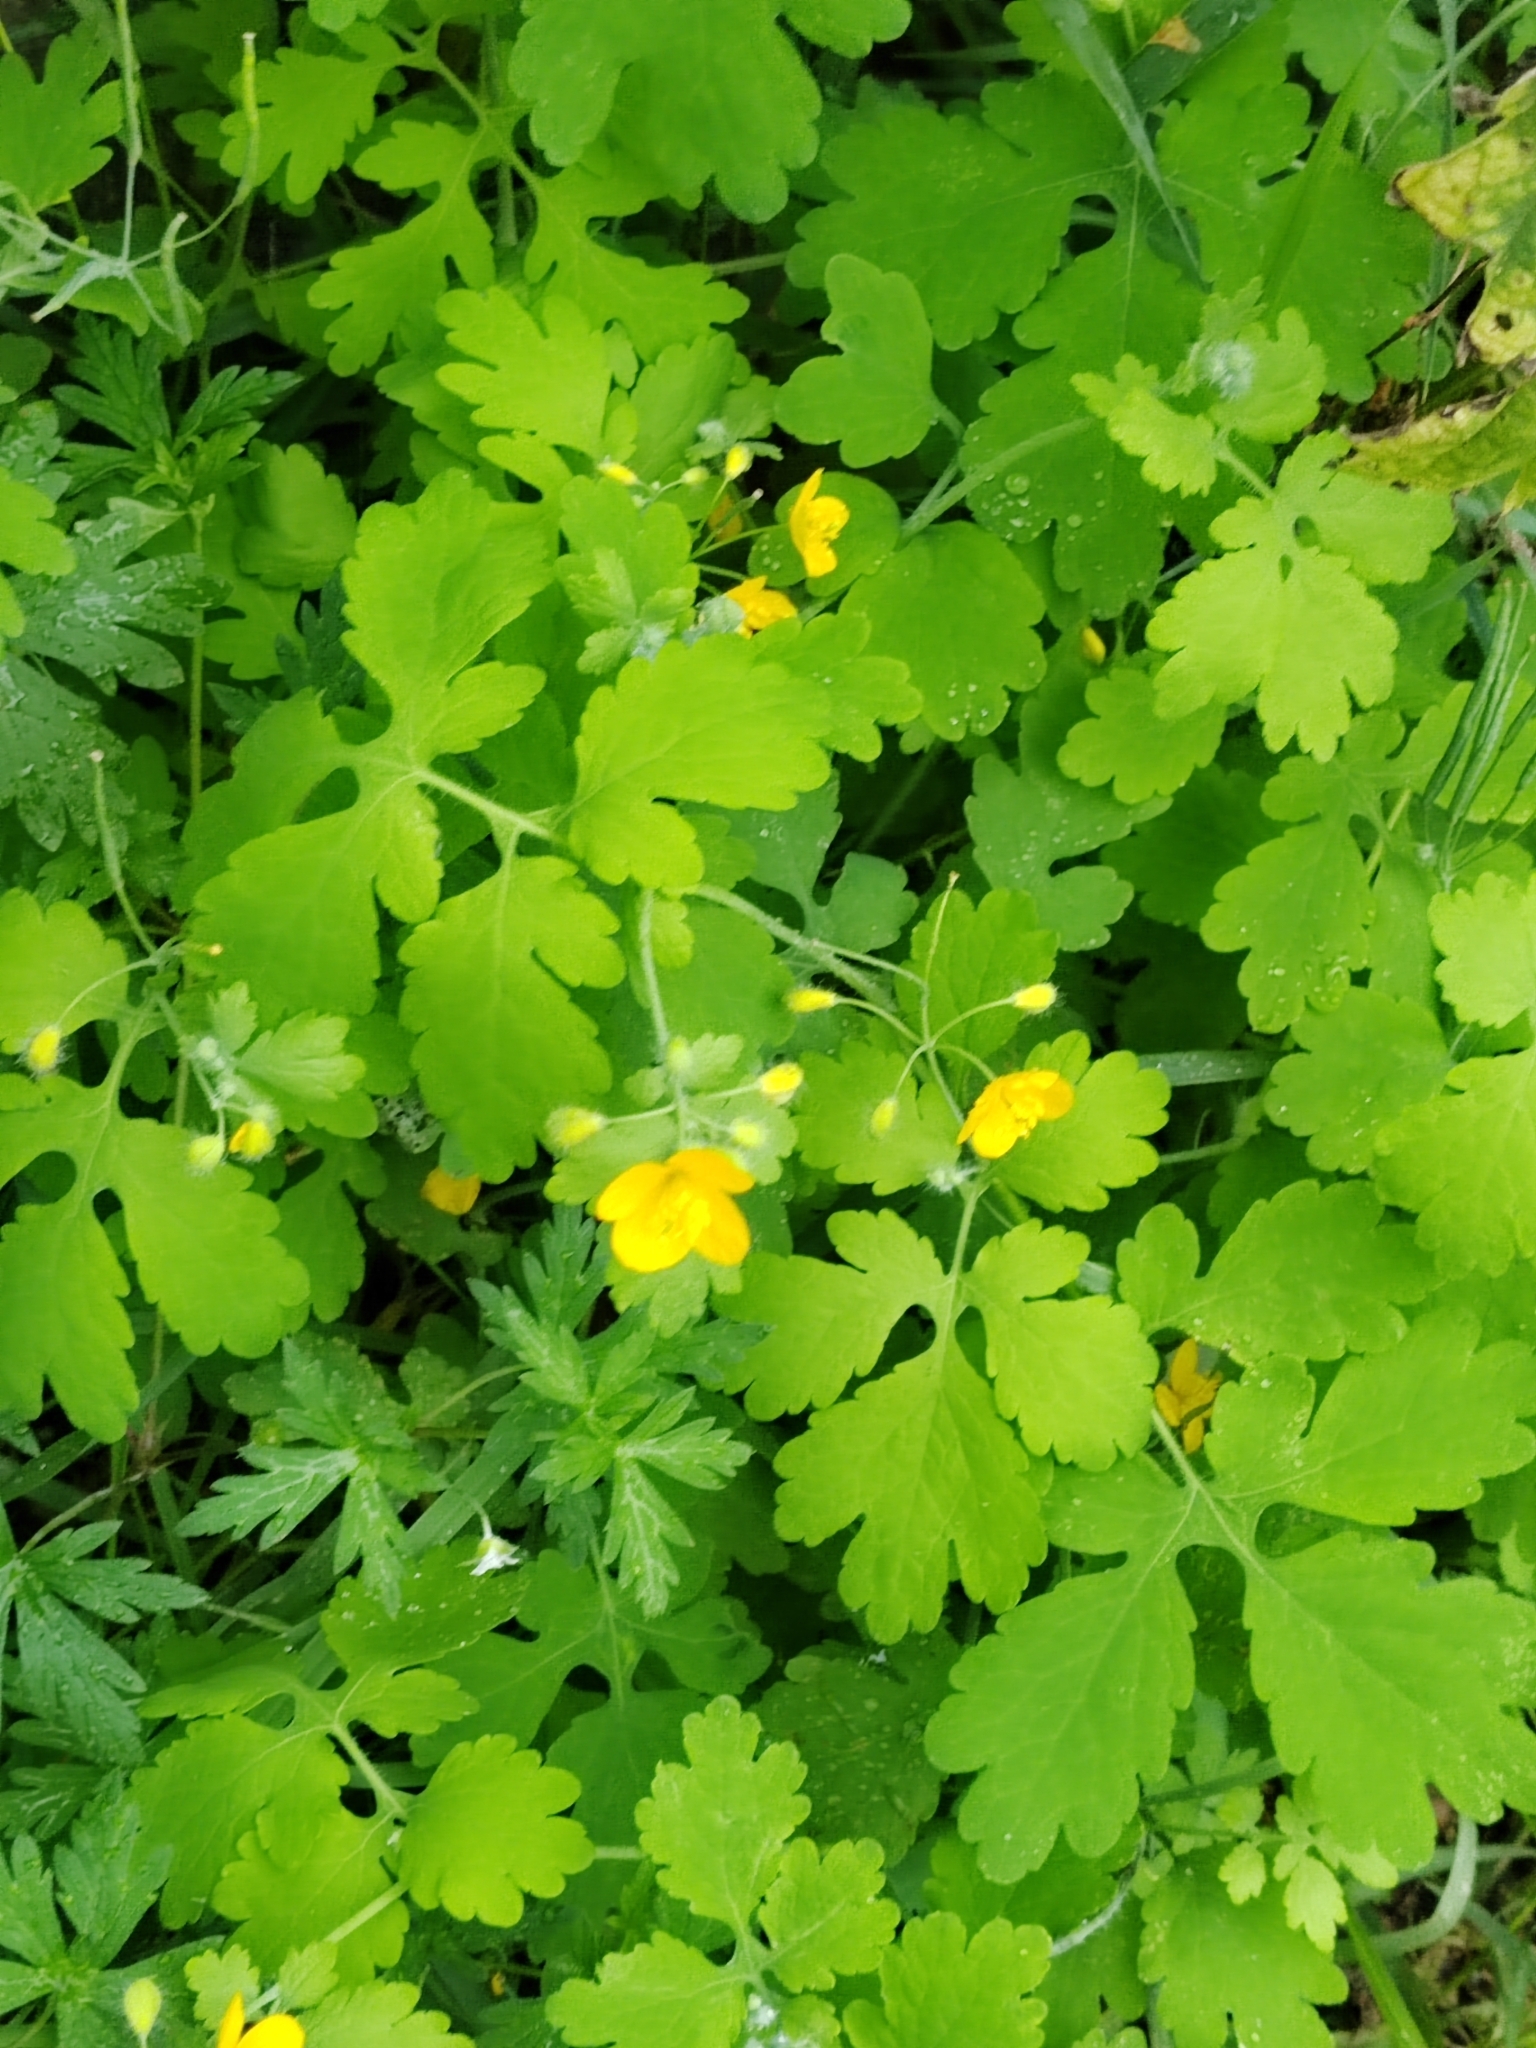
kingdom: Plantae
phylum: Tracheophyta
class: Magnoliopsida
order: Ranunculales
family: Papaveraceae
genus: Chelidonium
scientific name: Chelidonium majus
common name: Greater celandine
